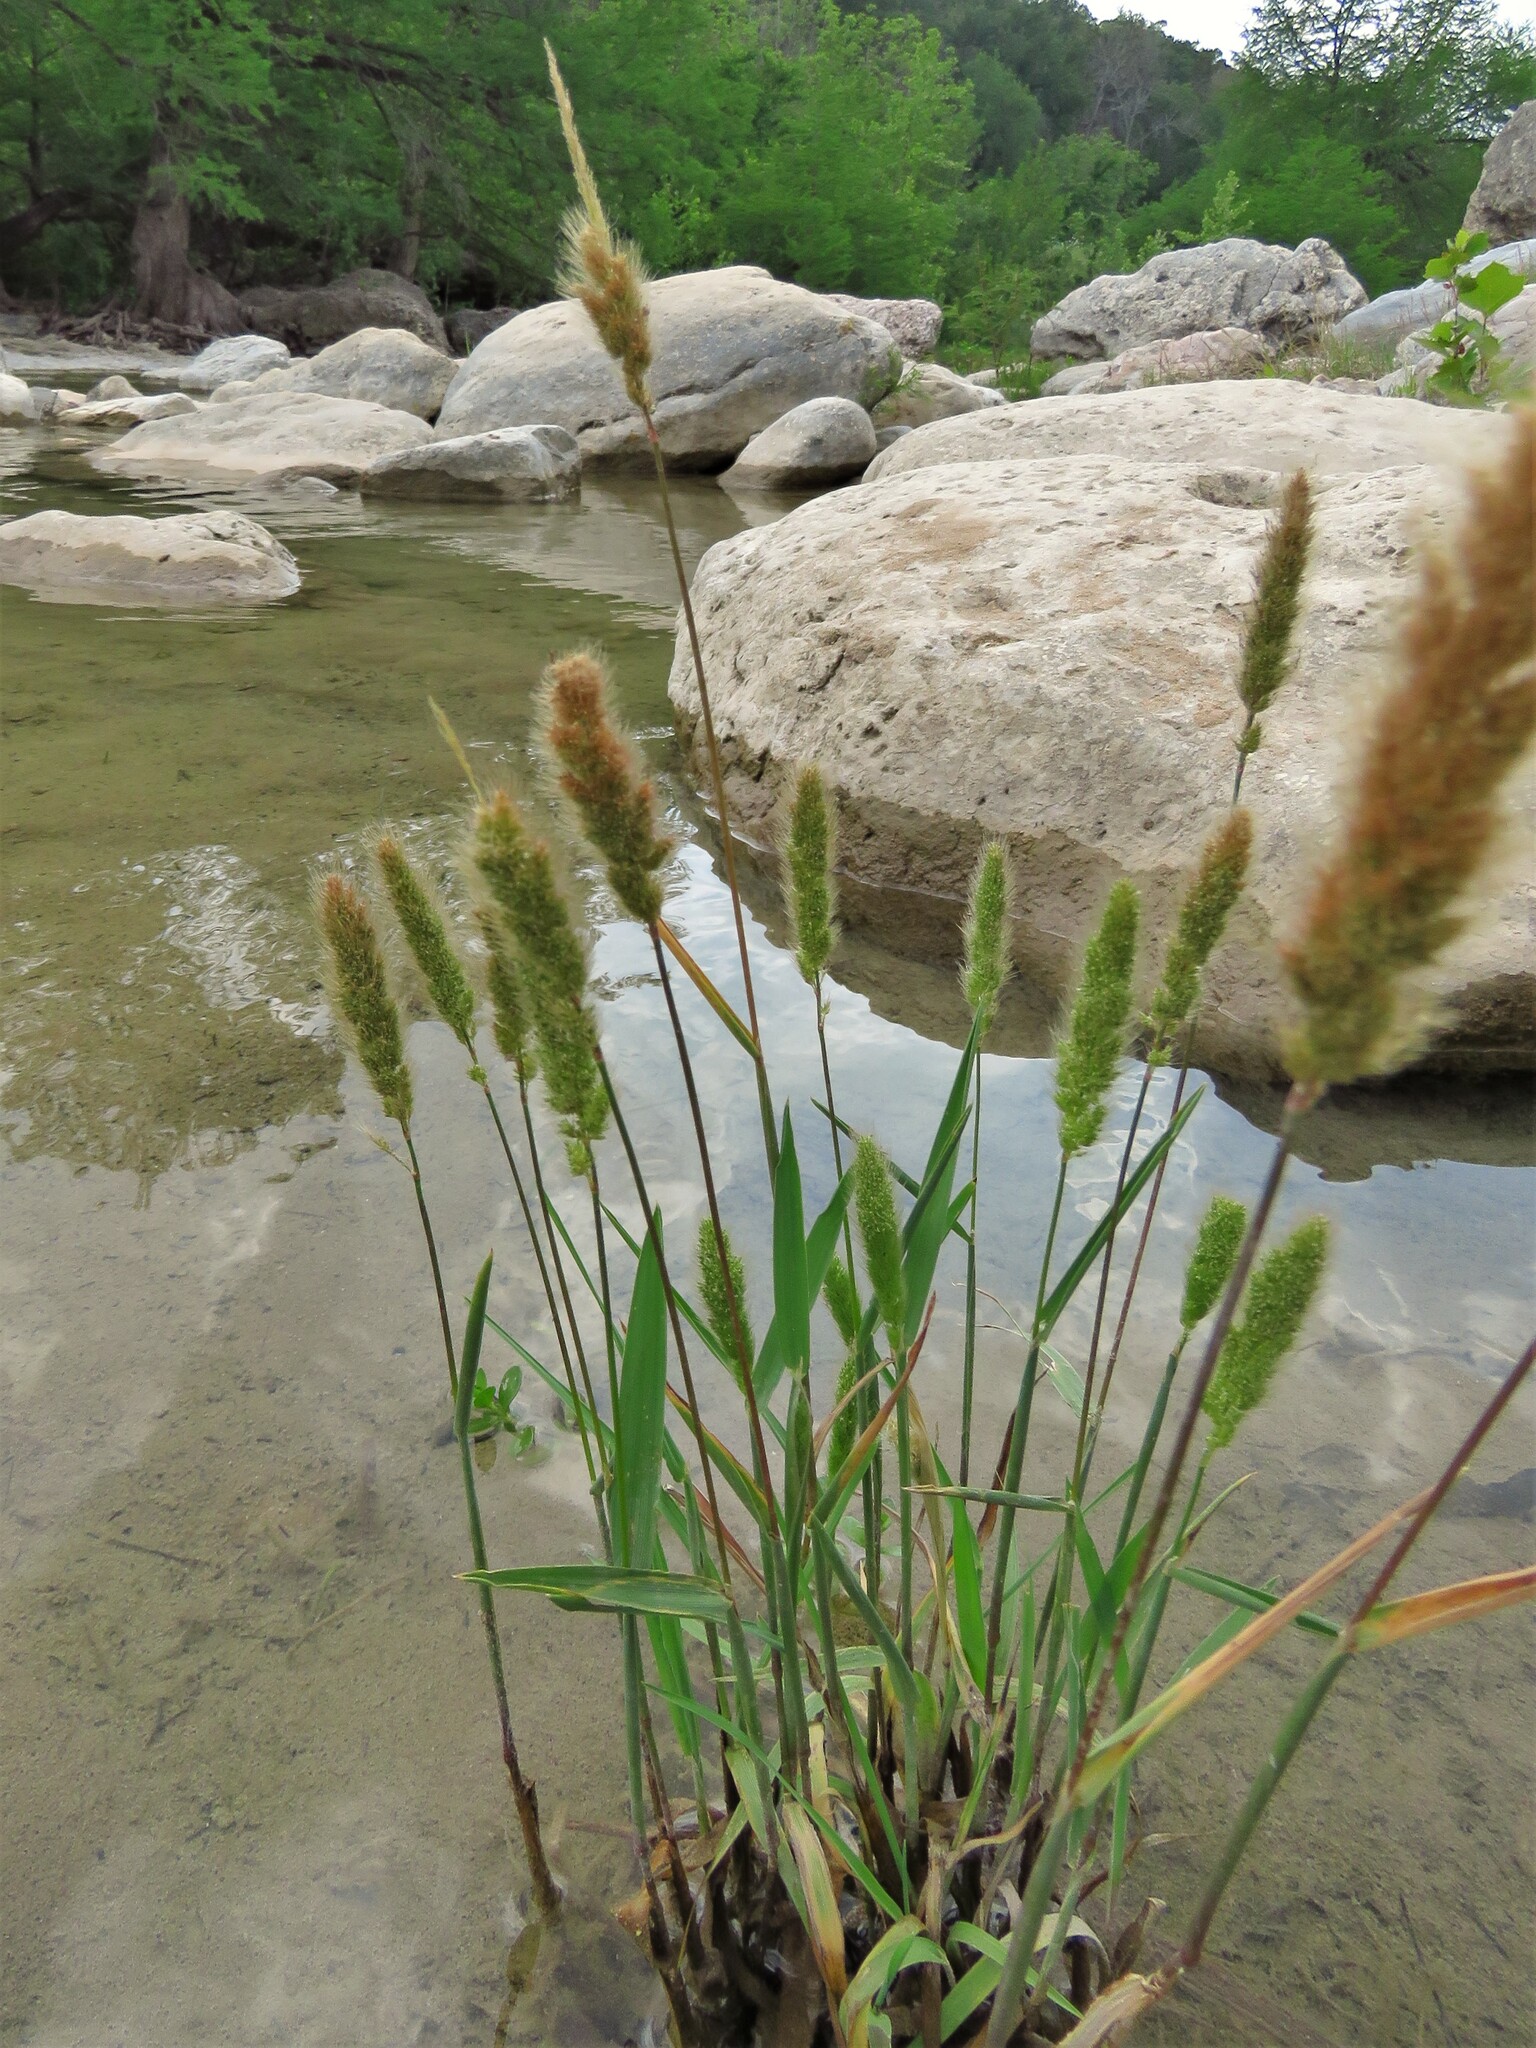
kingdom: Plantae
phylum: Tracheophyta
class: Liliopsida
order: Poales
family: Poaceae
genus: Polypogon
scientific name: Polypogon monspeliensis
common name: Annual rabbitsfoot grass
